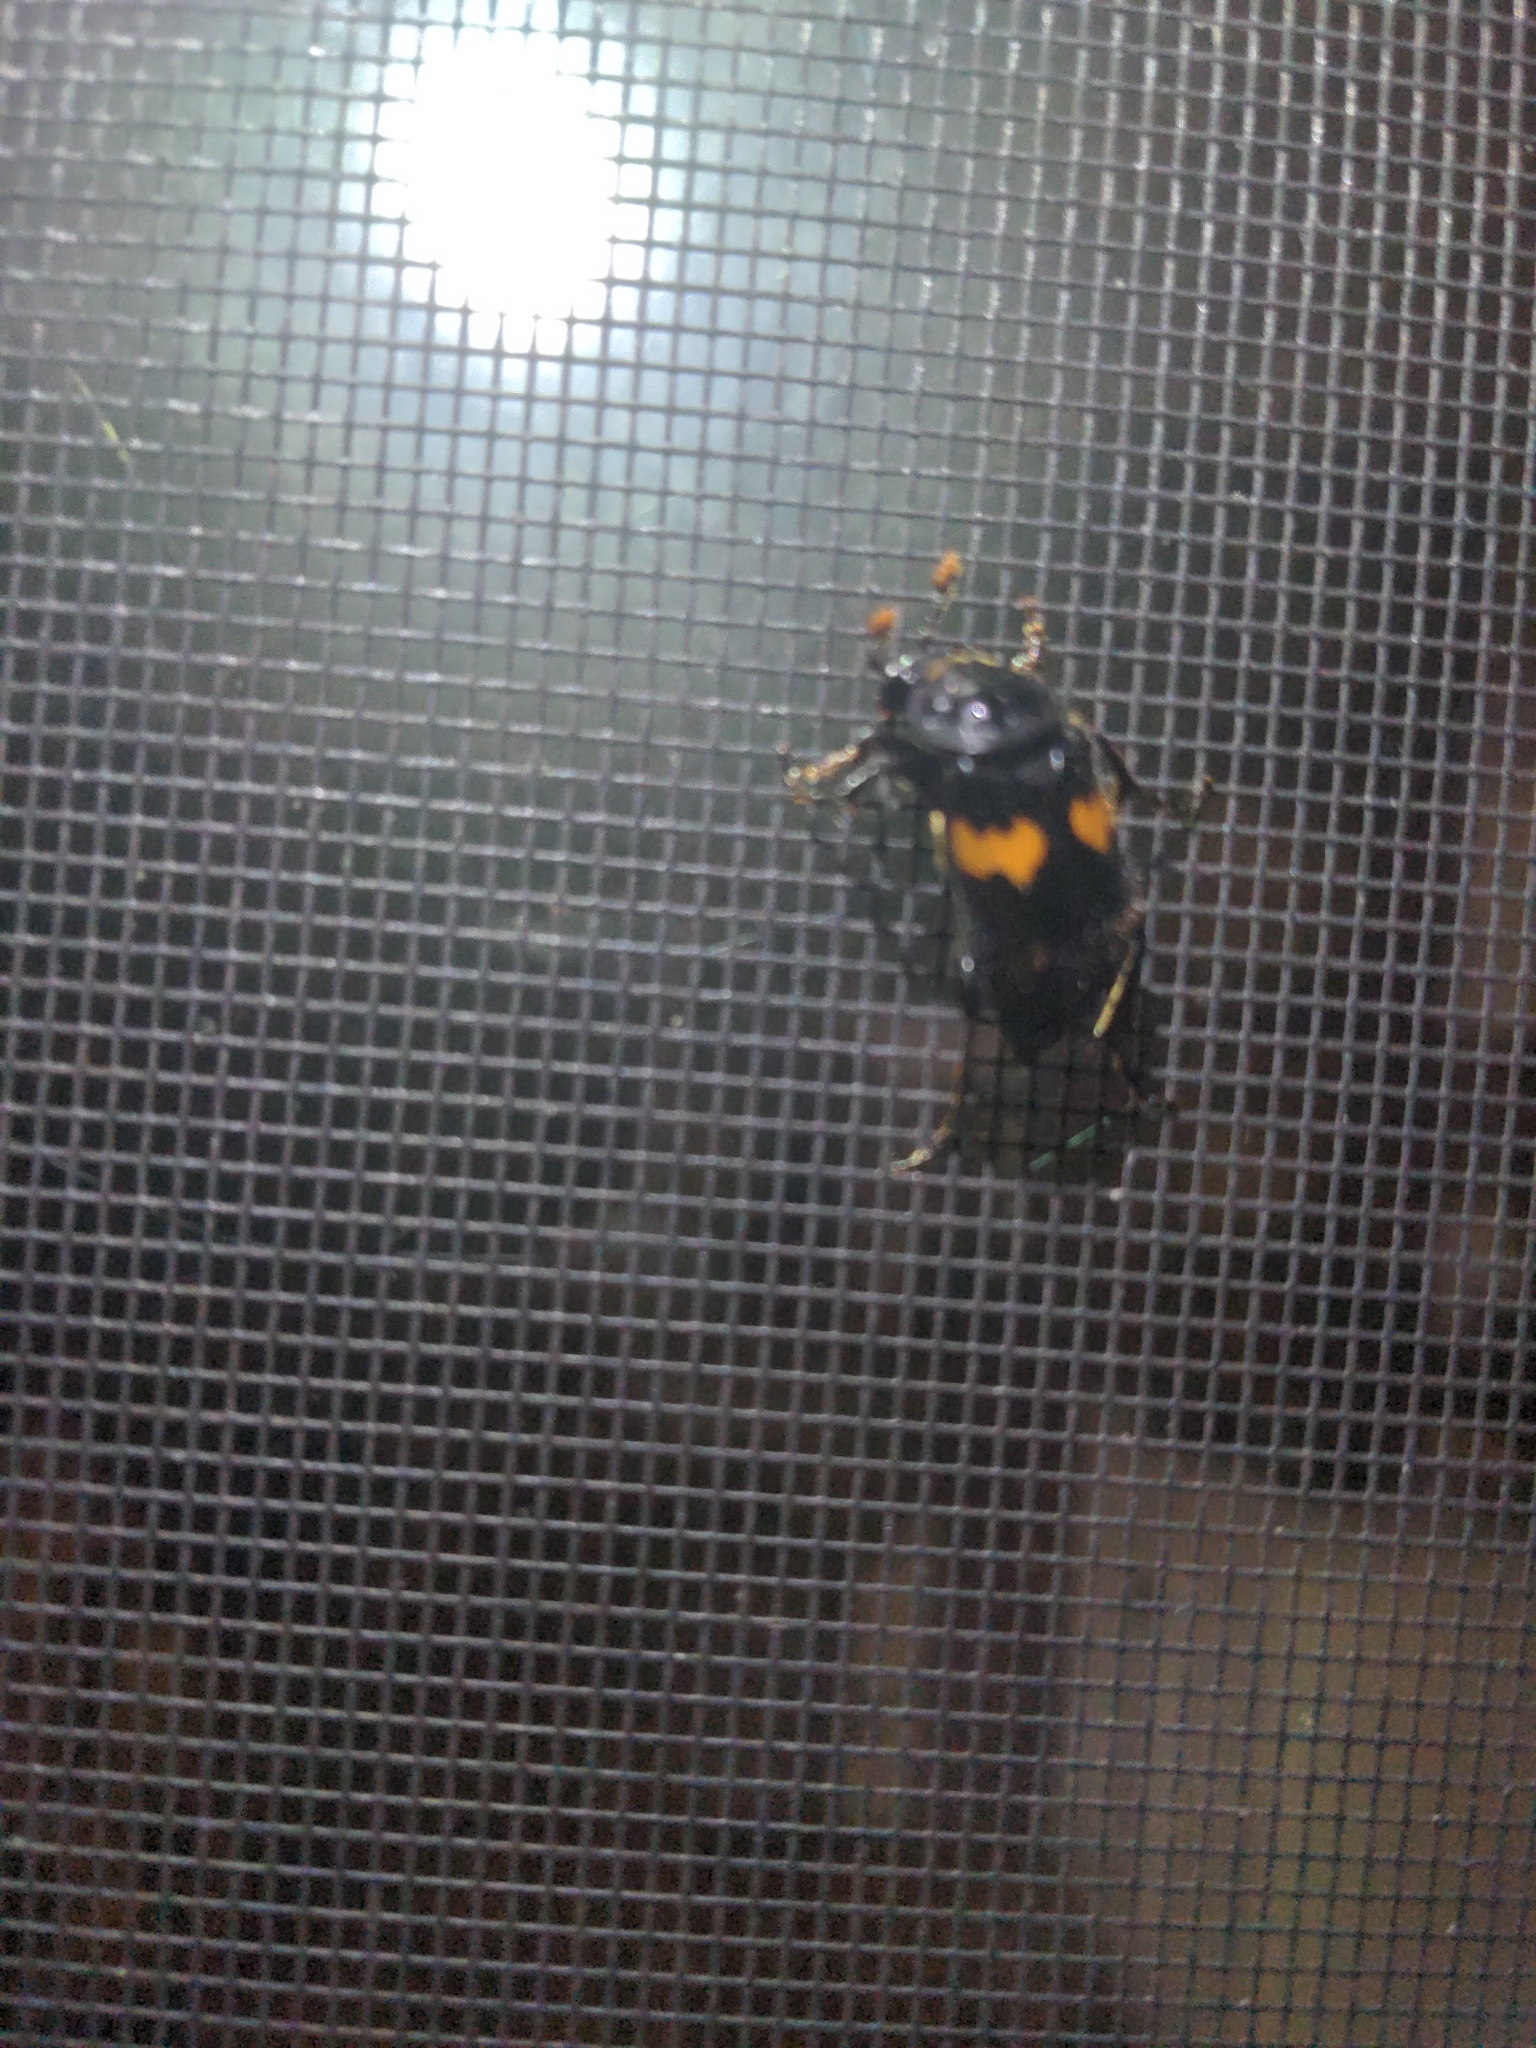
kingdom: Animalia
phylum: Arthropoda
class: Insecta
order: Coleoptera
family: Staphylinidae
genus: Nicrophorus
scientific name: Nicrophorus orbicollis
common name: Roundneck sexton beetle
